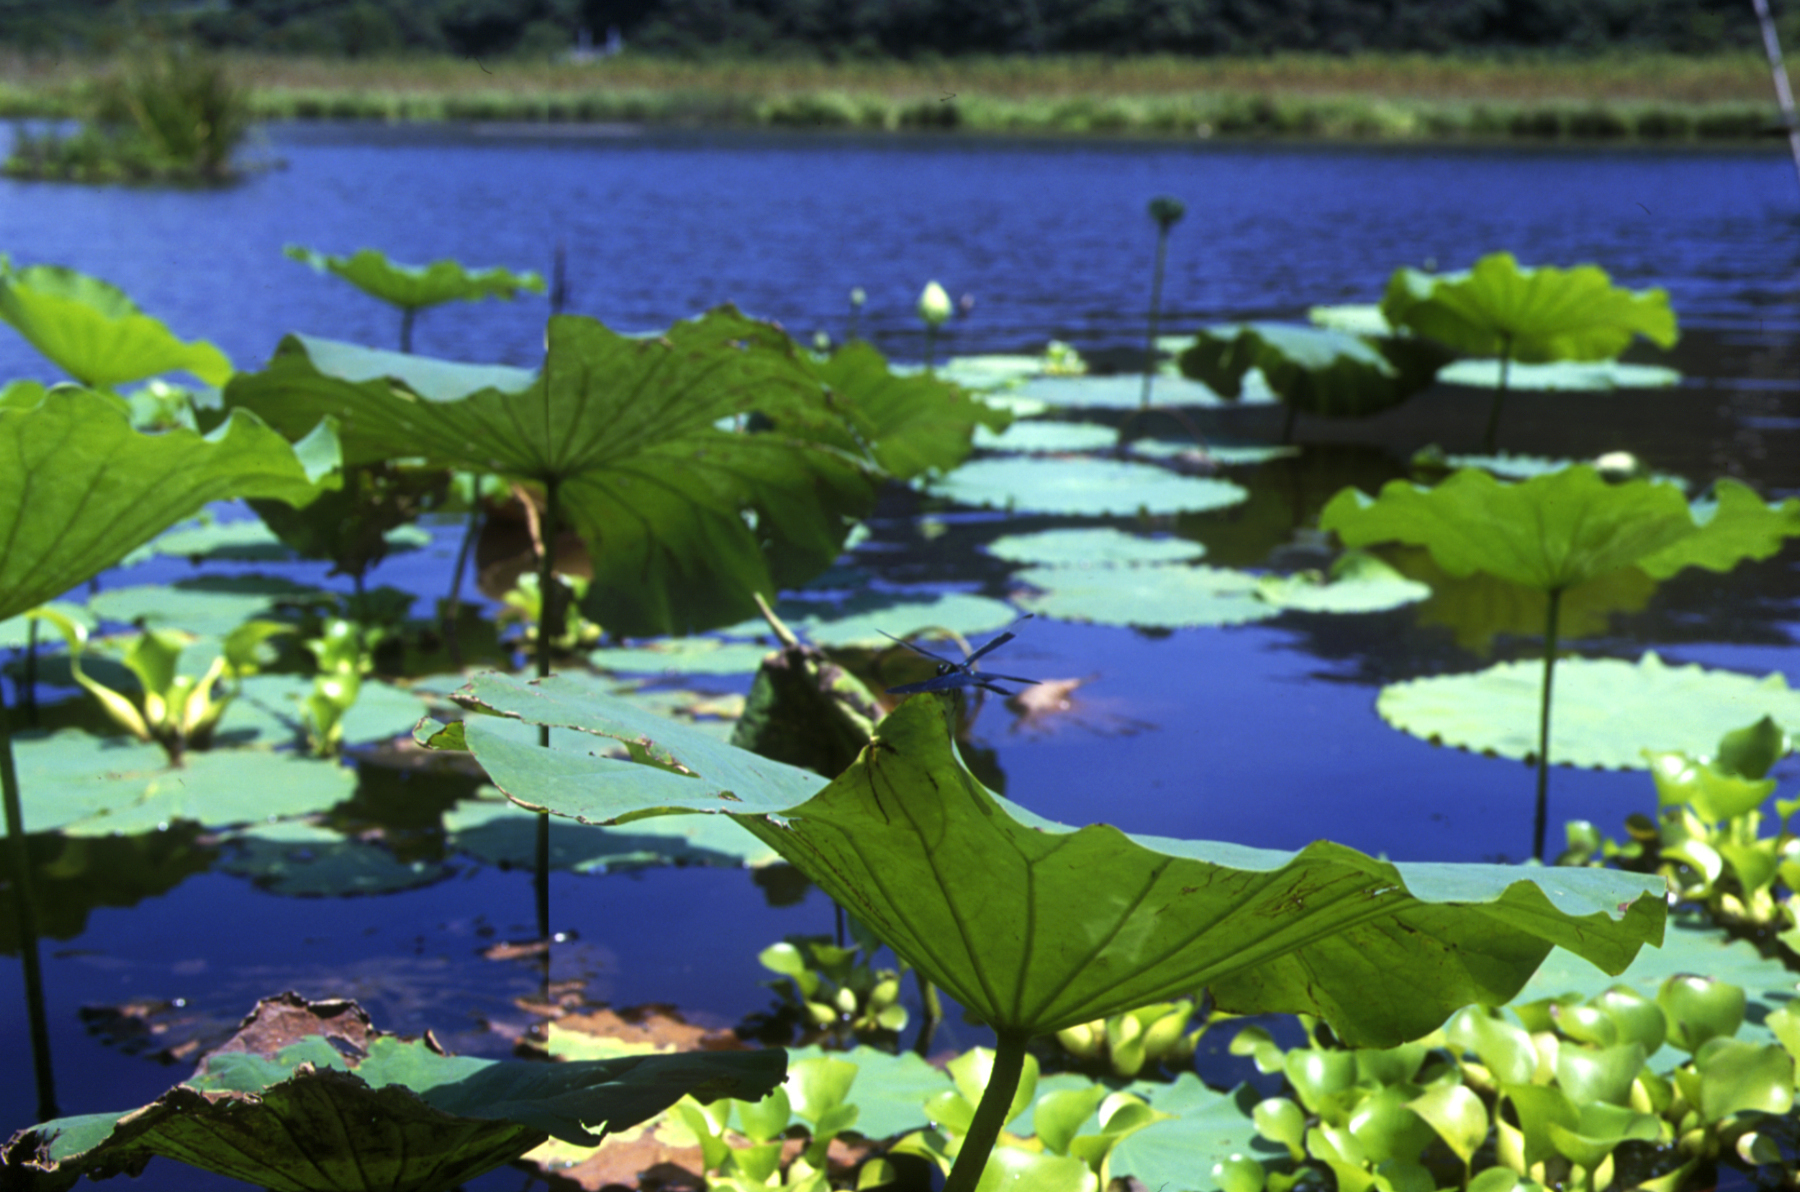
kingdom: Animalia
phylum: Arthropoda
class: Insecta
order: Odonata
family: Libellulidae
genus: Rhyothemis
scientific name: Rhyothemis fuliginosa
